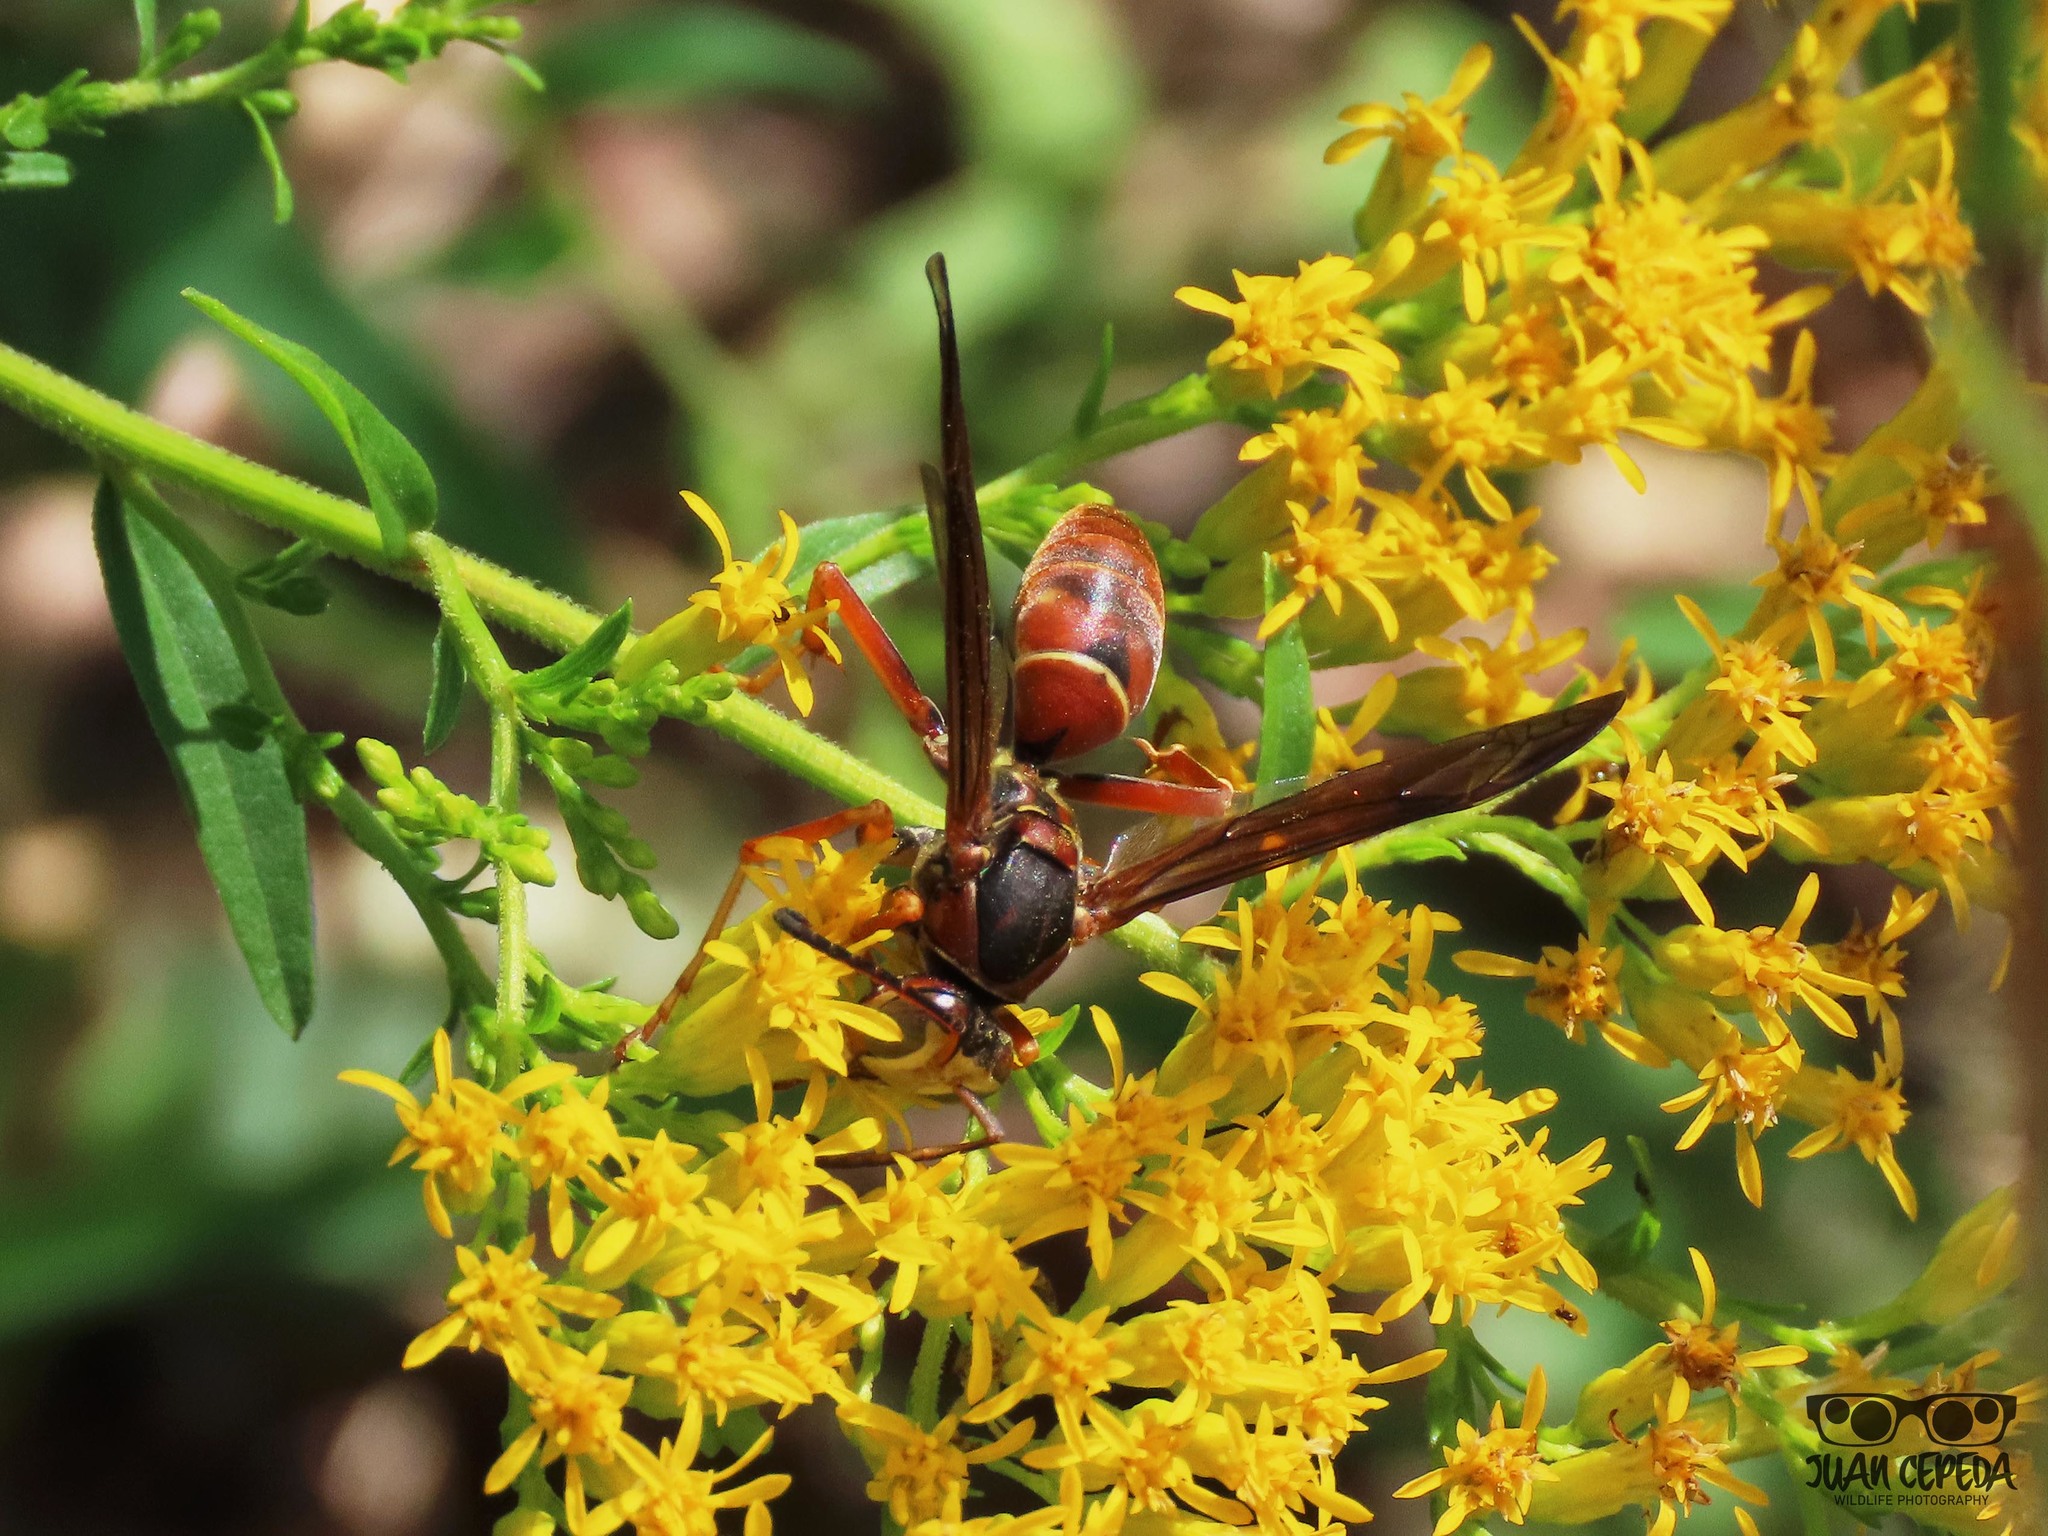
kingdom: Animalia
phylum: Arthropoda
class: Insecta
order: Hymenoptera
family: Eumenidae
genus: Polistes
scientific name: Polistes fuscatus
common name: Dark paper wasp
